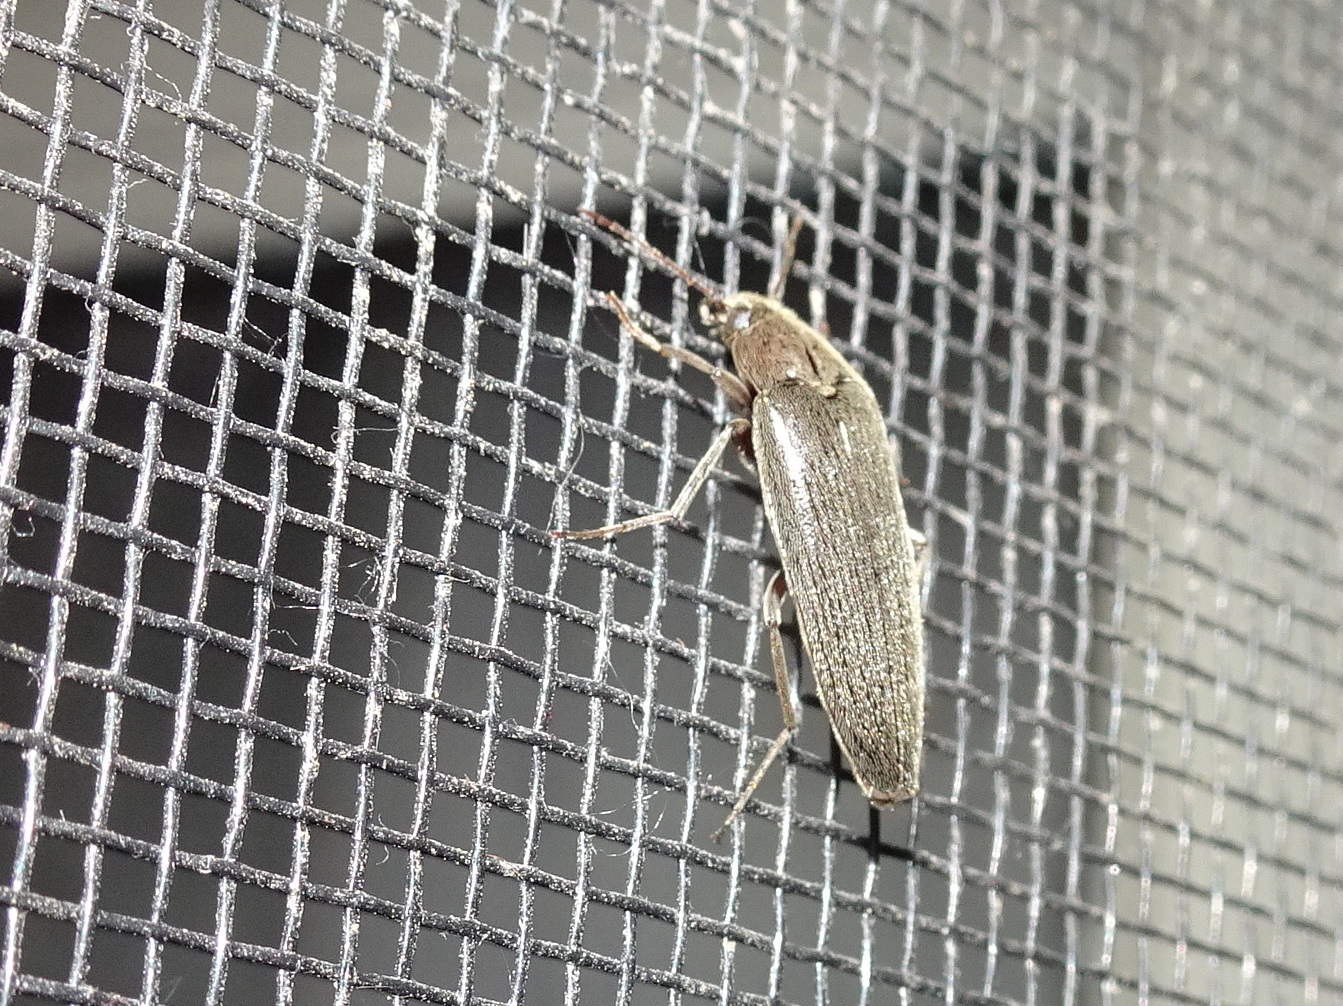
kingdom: Animalia
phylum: Arthropoda
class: Insecta
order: Coleoptera
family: Synchroidae
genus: Synchroa
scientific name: Synchroa punctata
